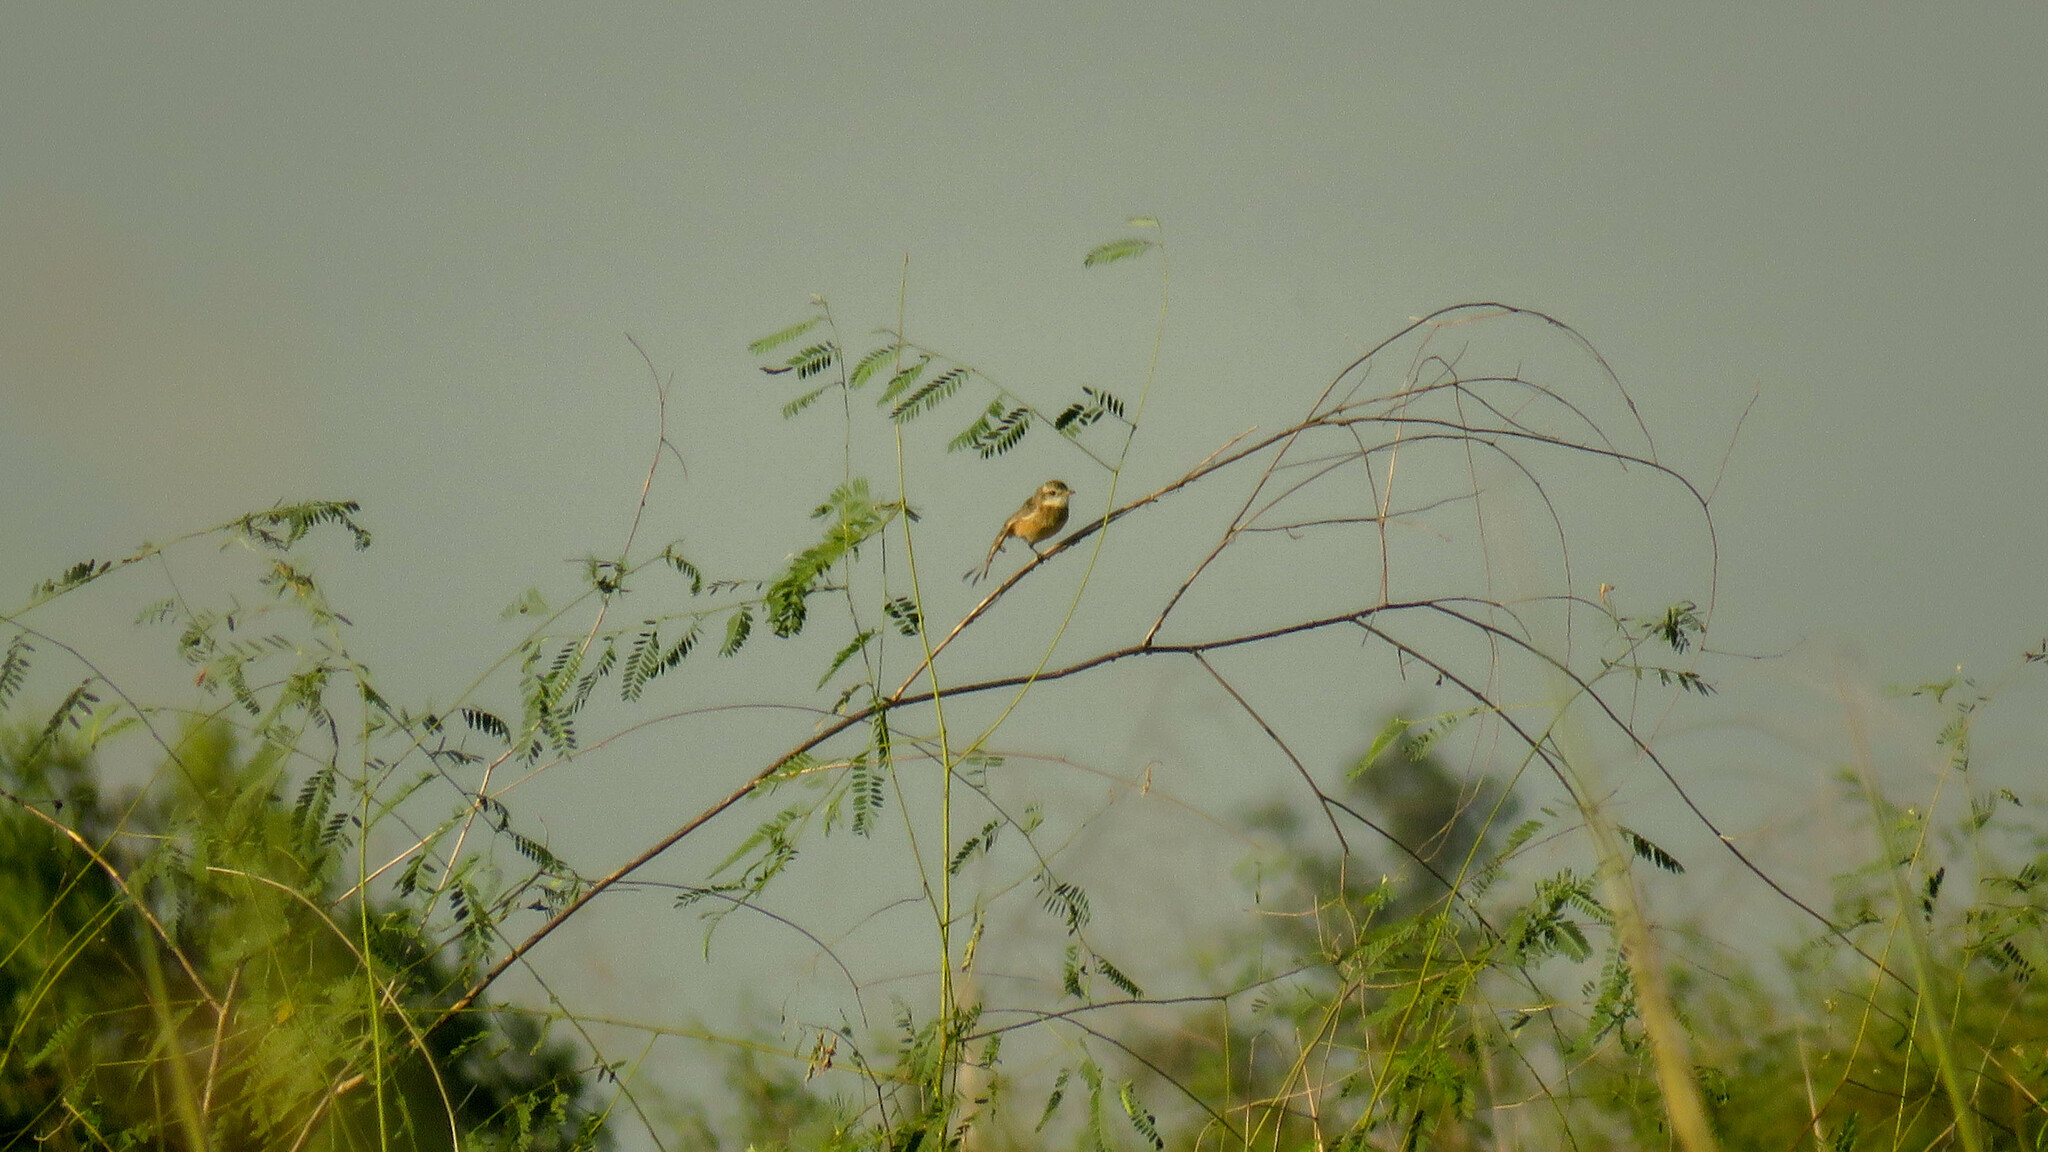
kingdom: Animalia
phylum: Chordata
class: Aves
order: Passeriformes
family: Tyrannidae
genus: Alectrurus
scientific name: Alectrurus risora
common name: Strange-tailed tyrant
